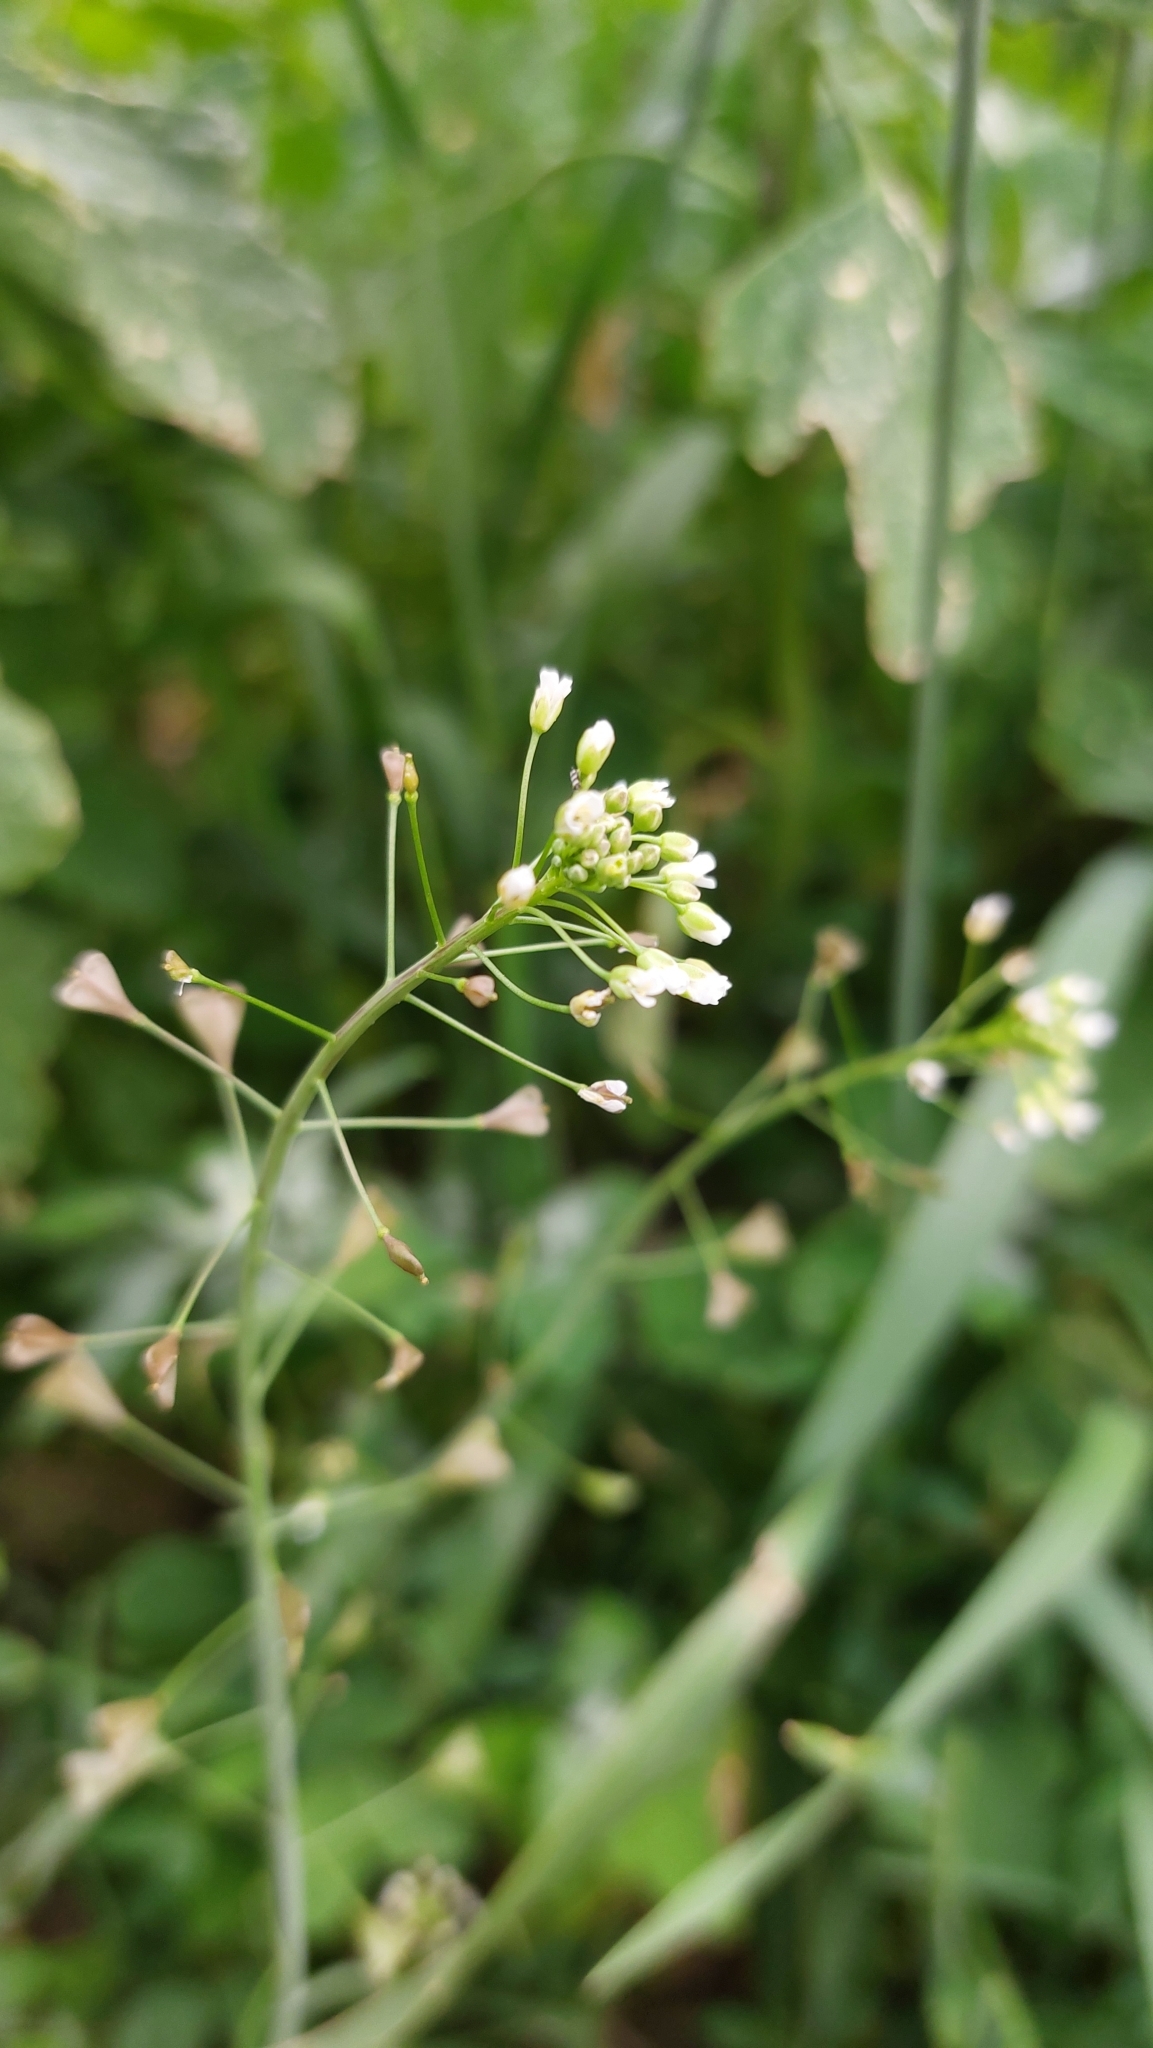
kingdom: Plantae
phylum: Tracheophyta
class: Magnoliopsida
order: Brassicales
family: Brassicaceae
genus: Capsella
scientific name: Capsella bursa-pastoris
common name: Shepherd's purse
